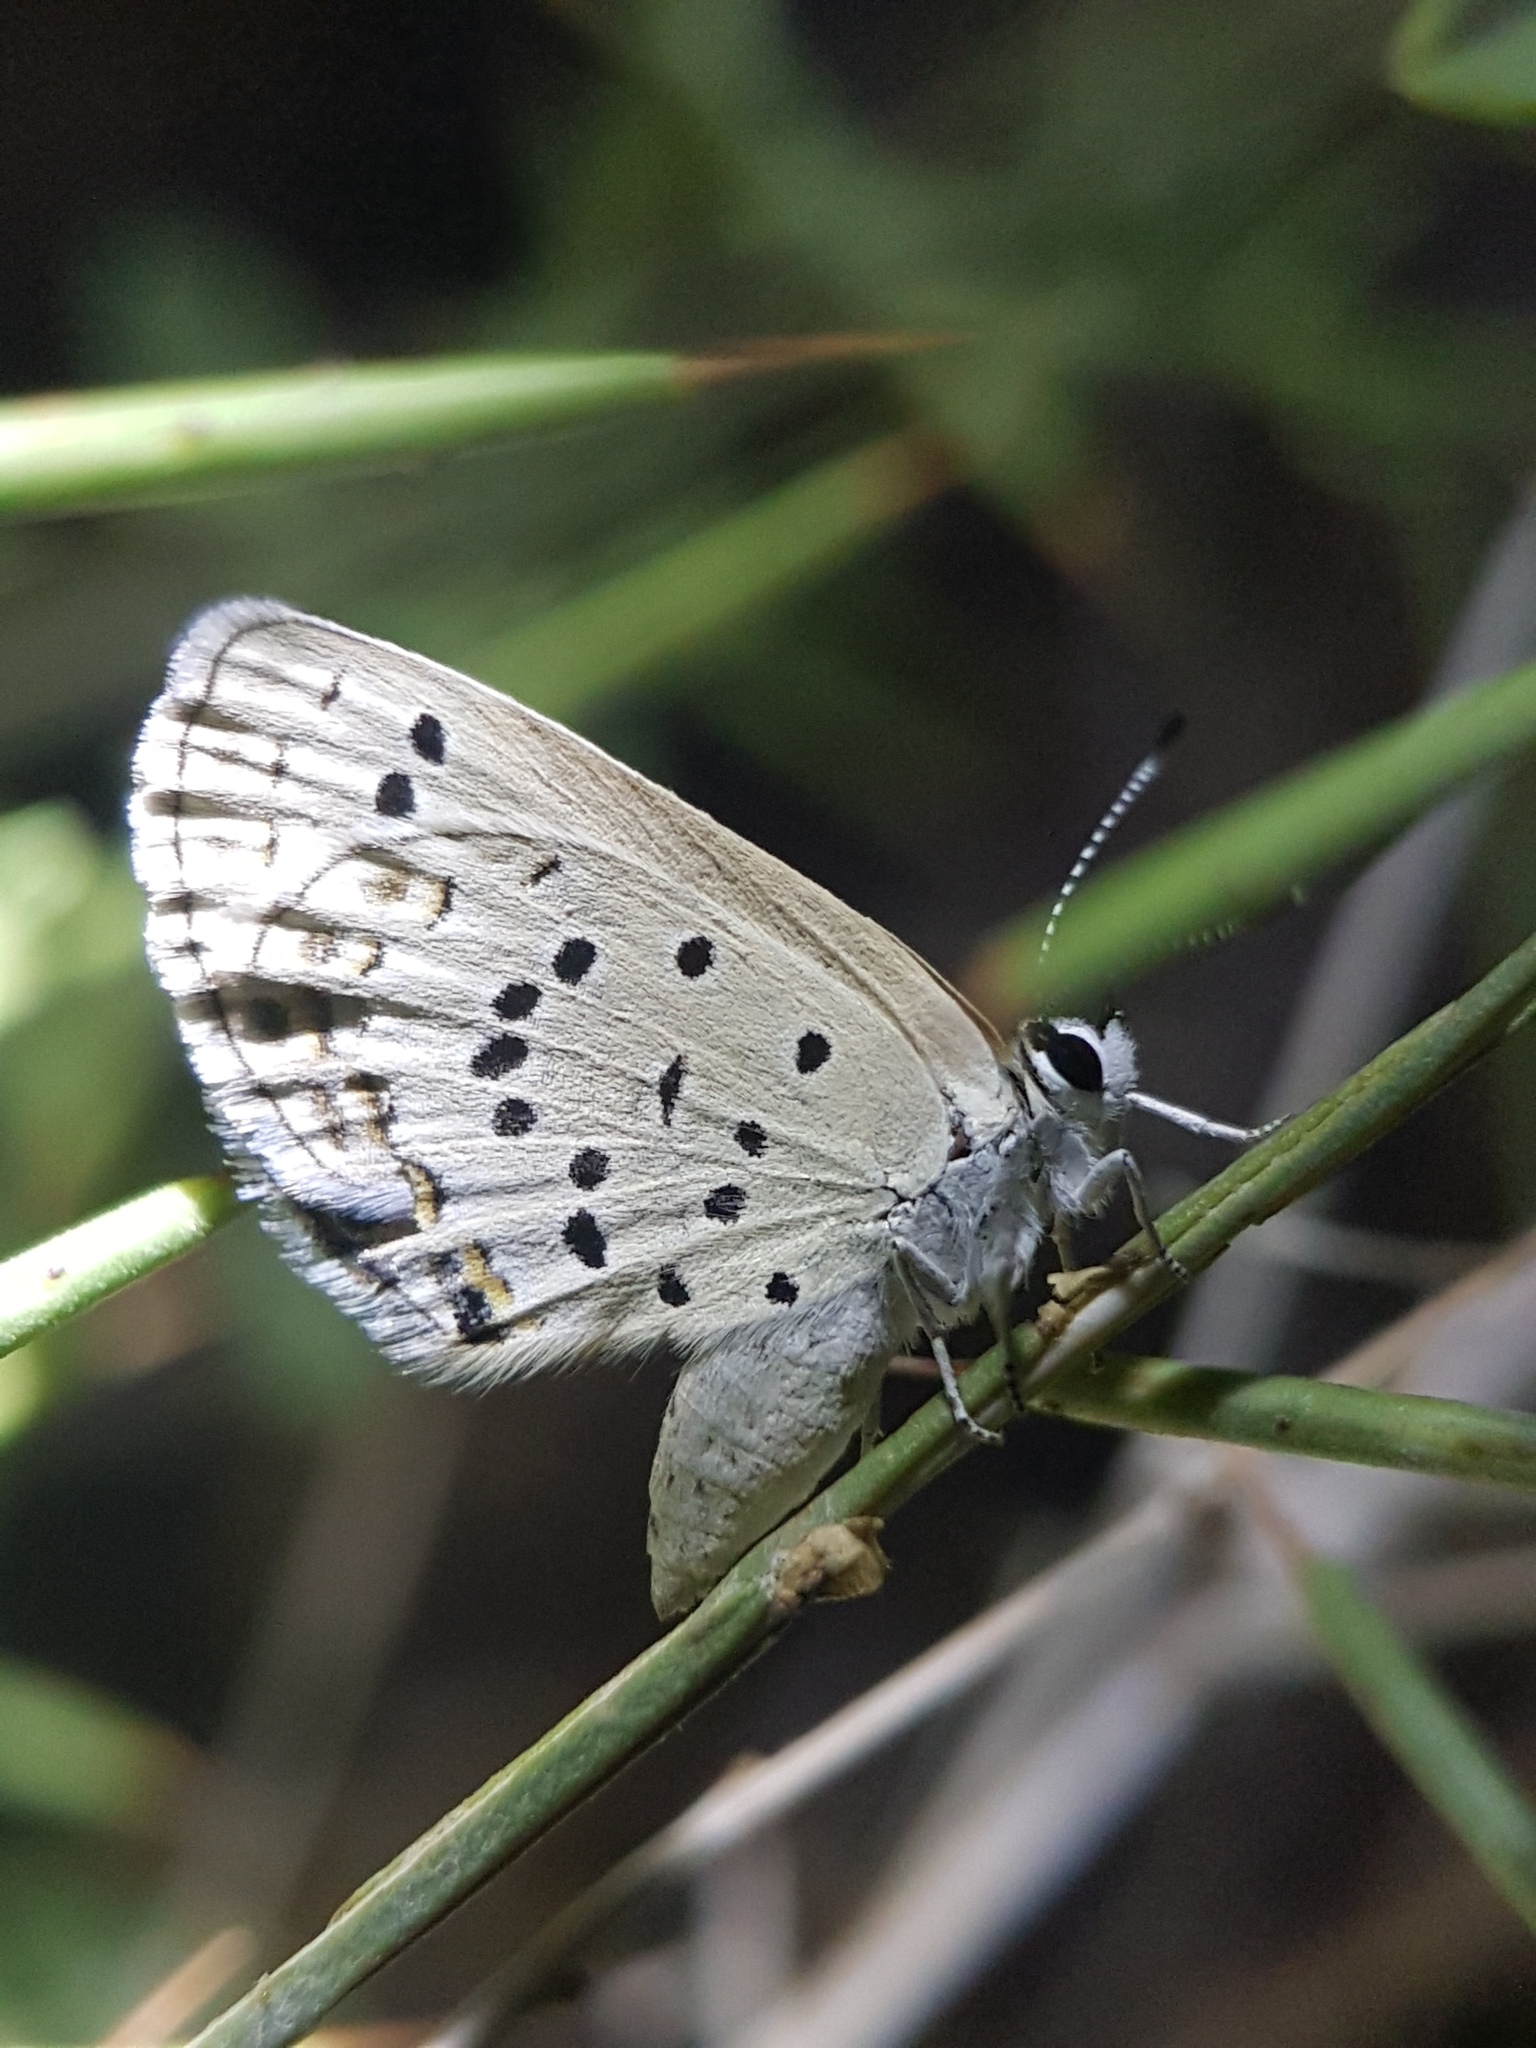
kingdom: Animalia
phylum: Arthropoda
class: Insecta
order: Lepidoptera
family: Lycaenidae
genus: Plebejus
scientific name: Plebejus christophi
